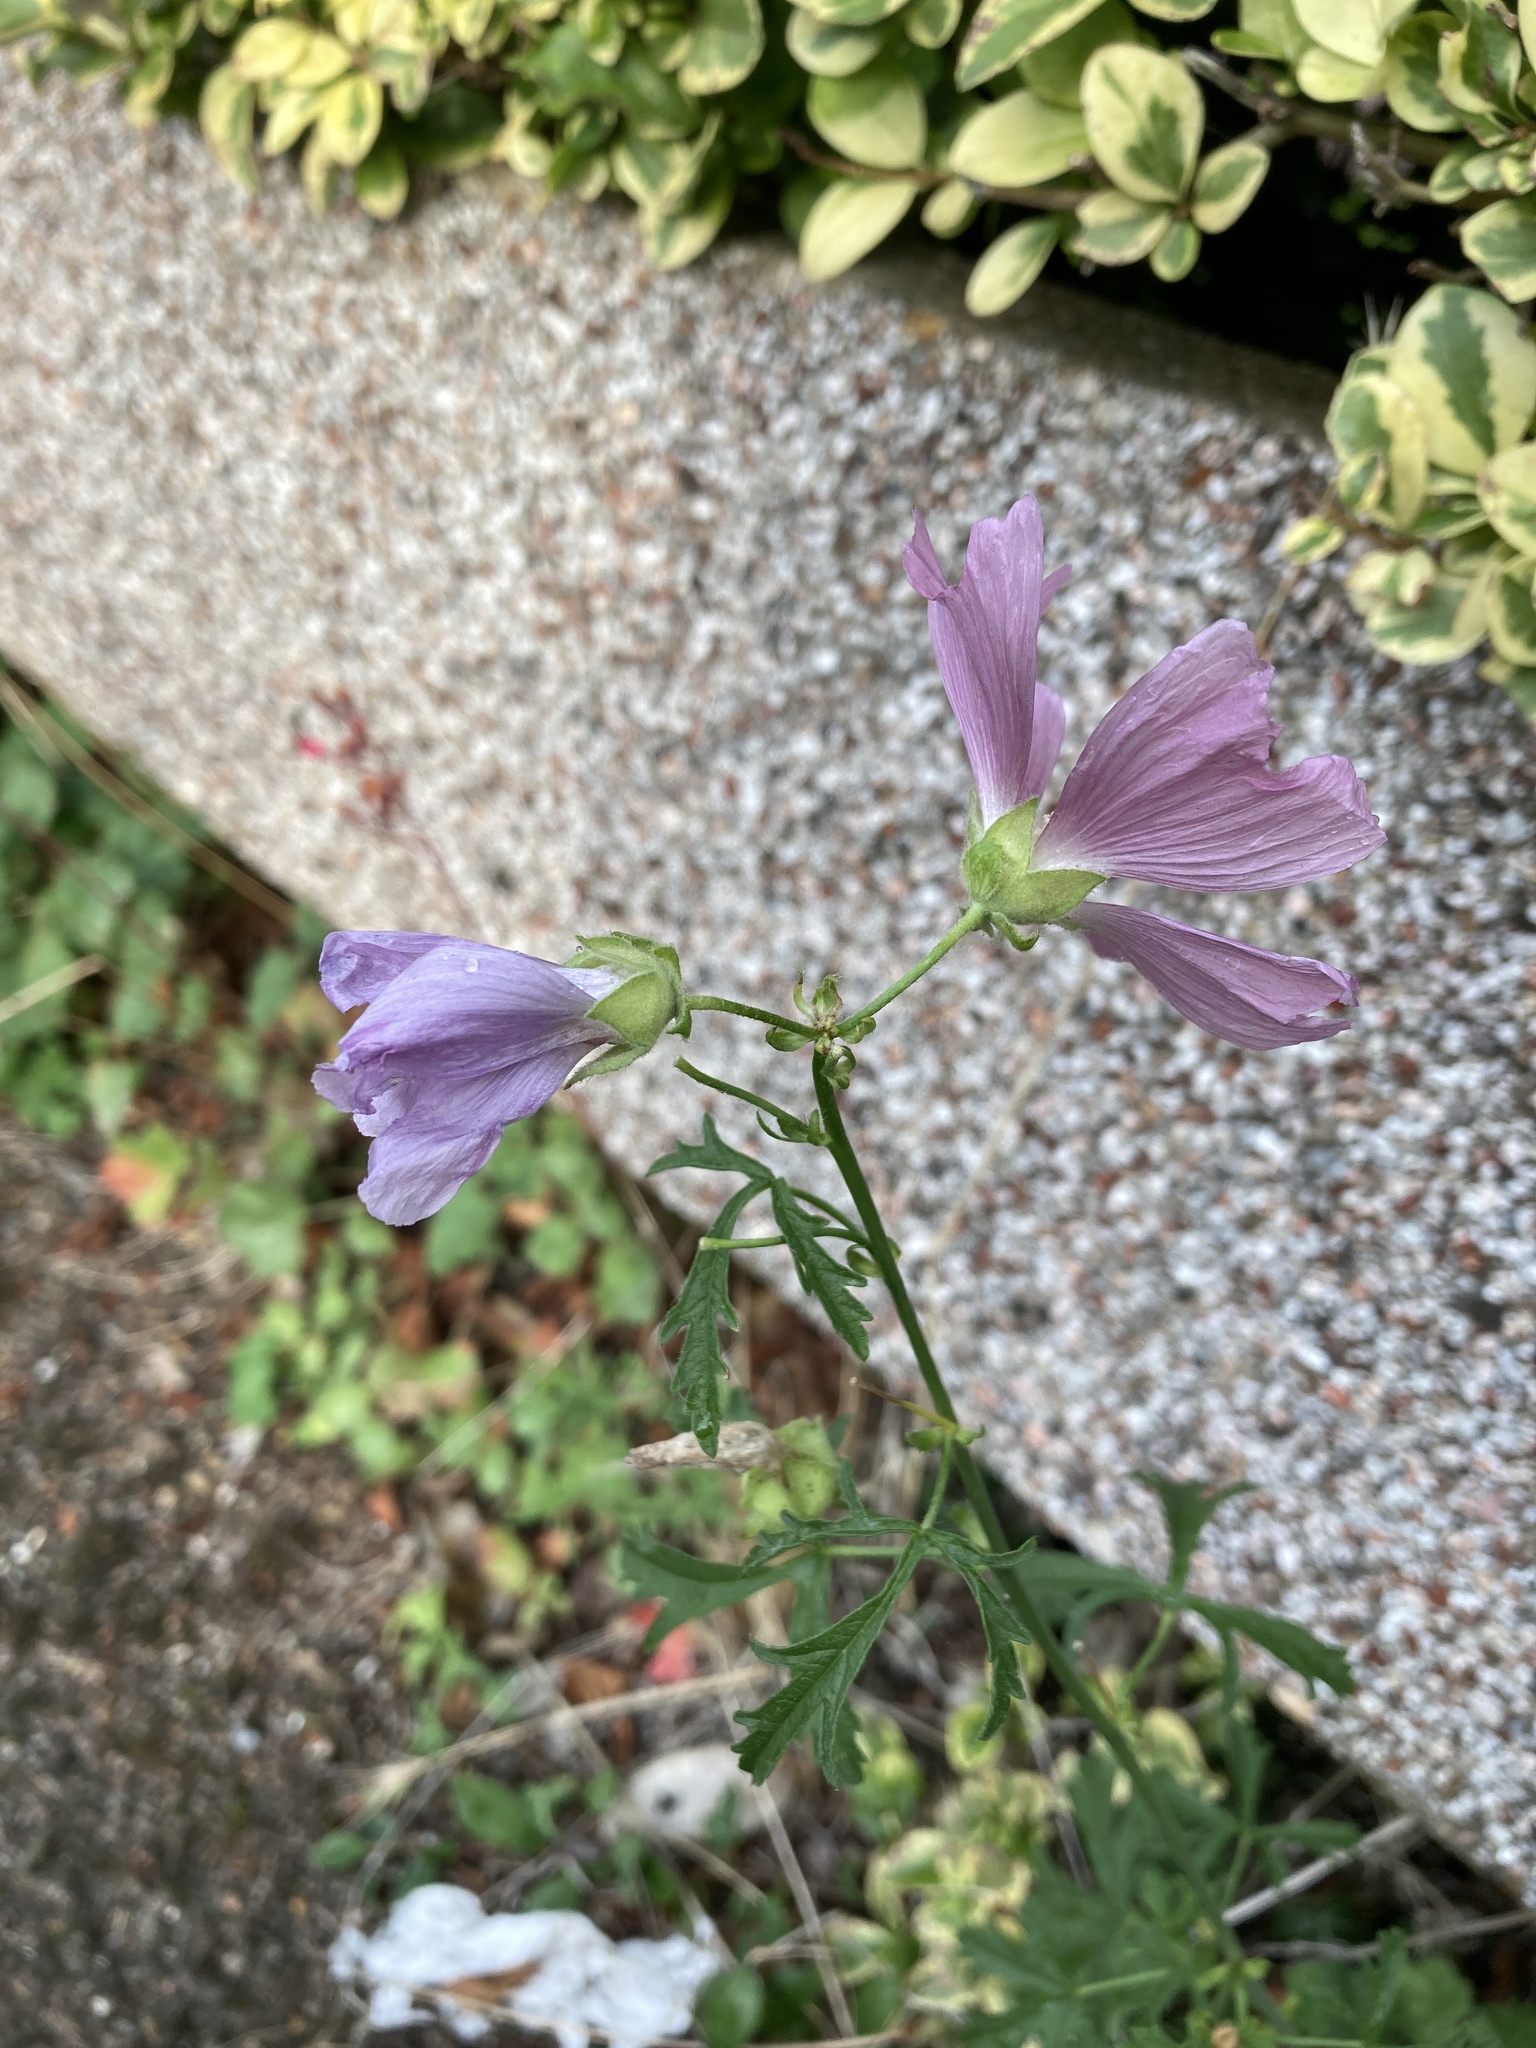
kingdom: Plantae
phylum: Tracheophyta
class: Magnoliopsida
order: Malvales
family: Malvaceae
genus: Malva
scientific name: Malva moschata
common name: Musk mallow
